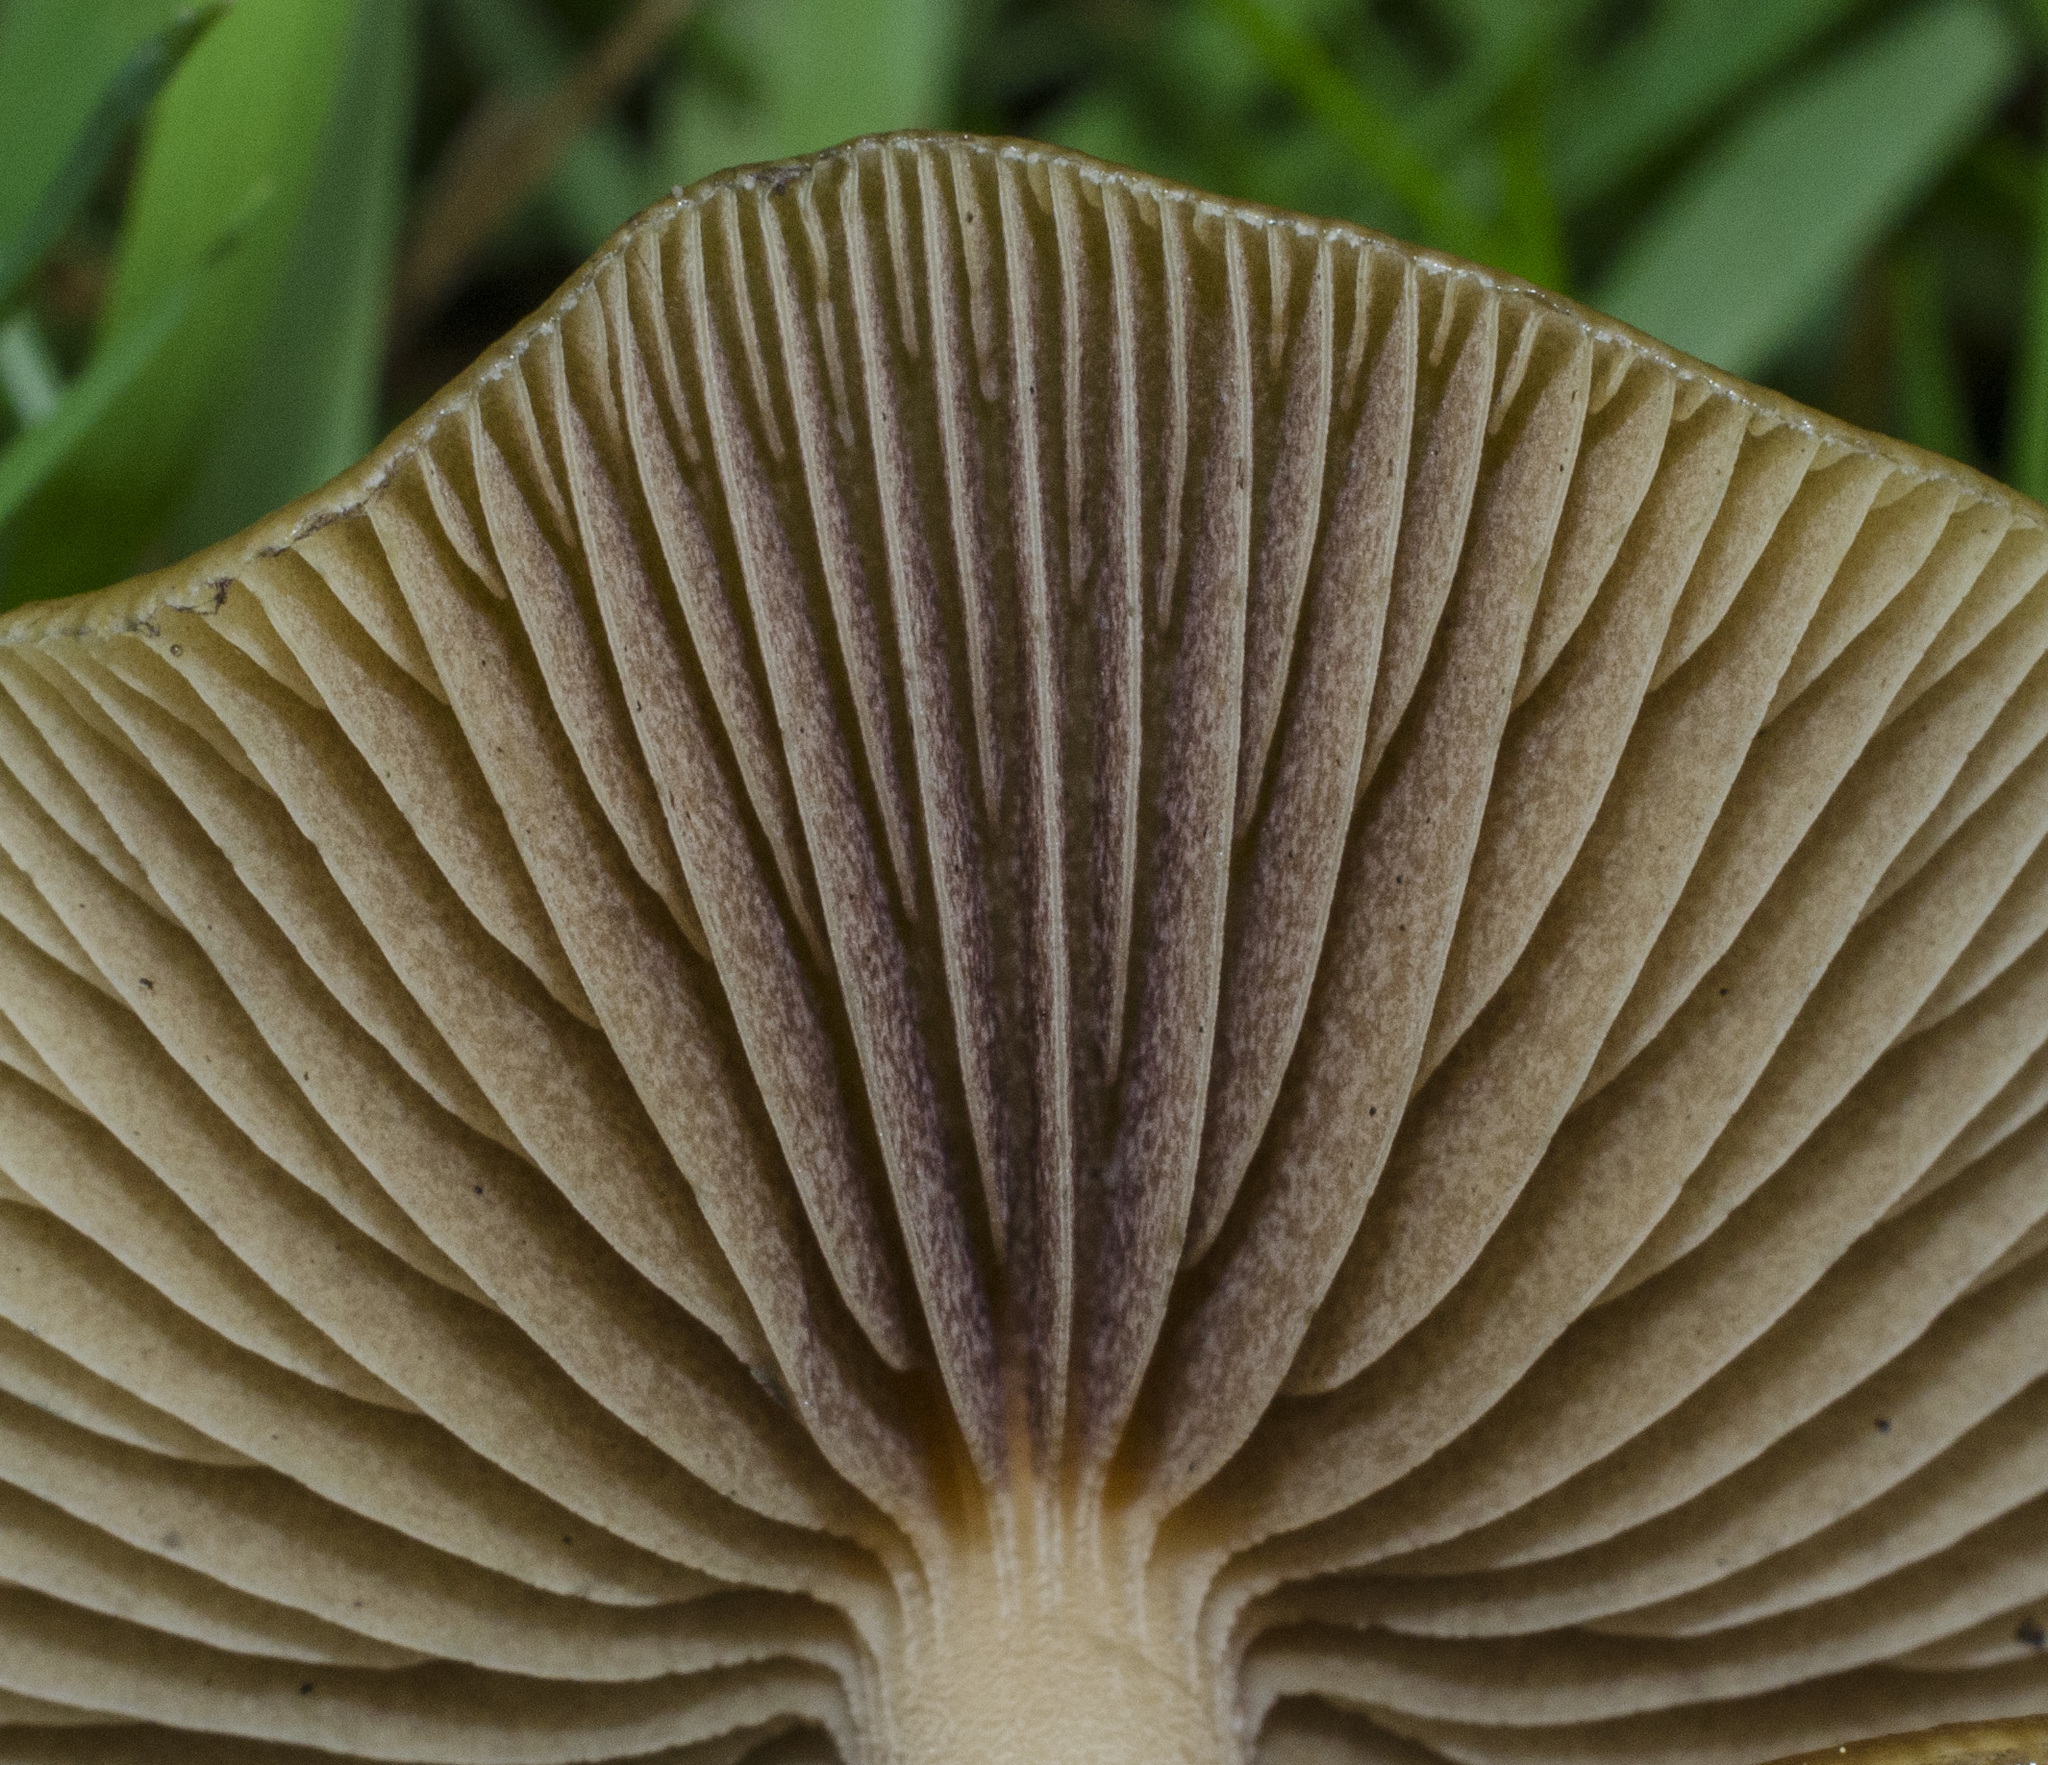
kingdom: Fungi
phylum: Basidiomycota
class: Agaricomycetes
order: Agaricales
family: Hymenogastraceae
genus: Psilocybe
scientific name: Psilocybe cyanescens
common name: Blueleg brownie
